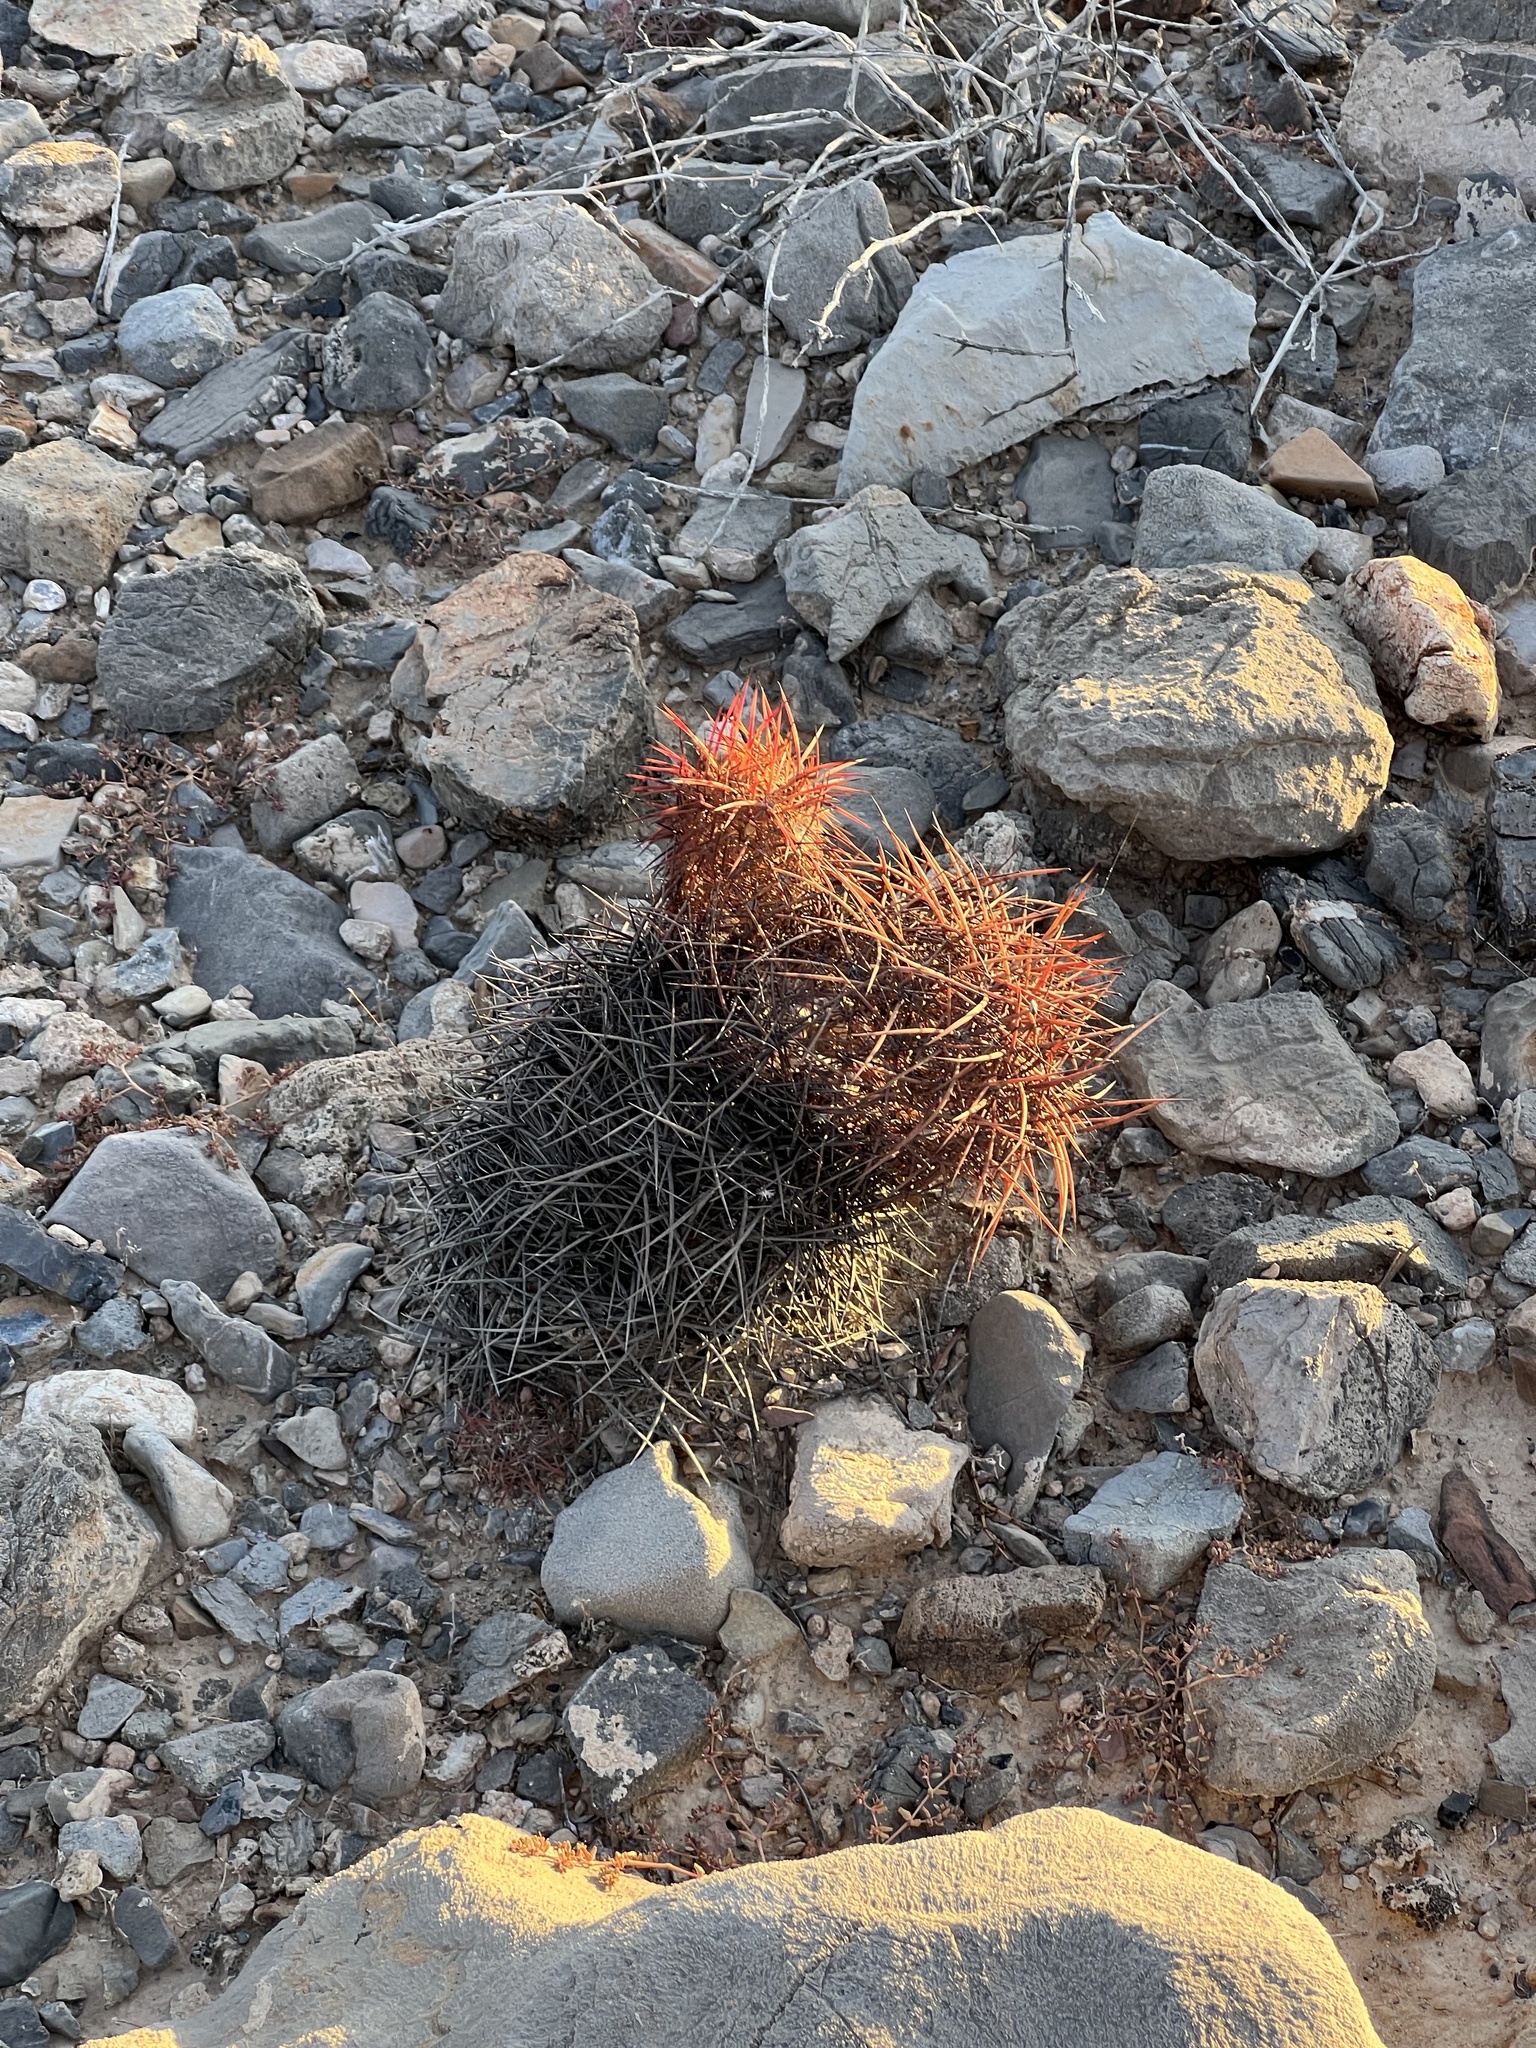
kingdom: Plantae
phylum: Tracheophyta
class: Magnoliopsida
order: Caryophyllales
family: Cactaceae
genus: Sclerocactus
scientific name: Sclerocactus johnsonii
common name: Eight-spine fishhook cactus
